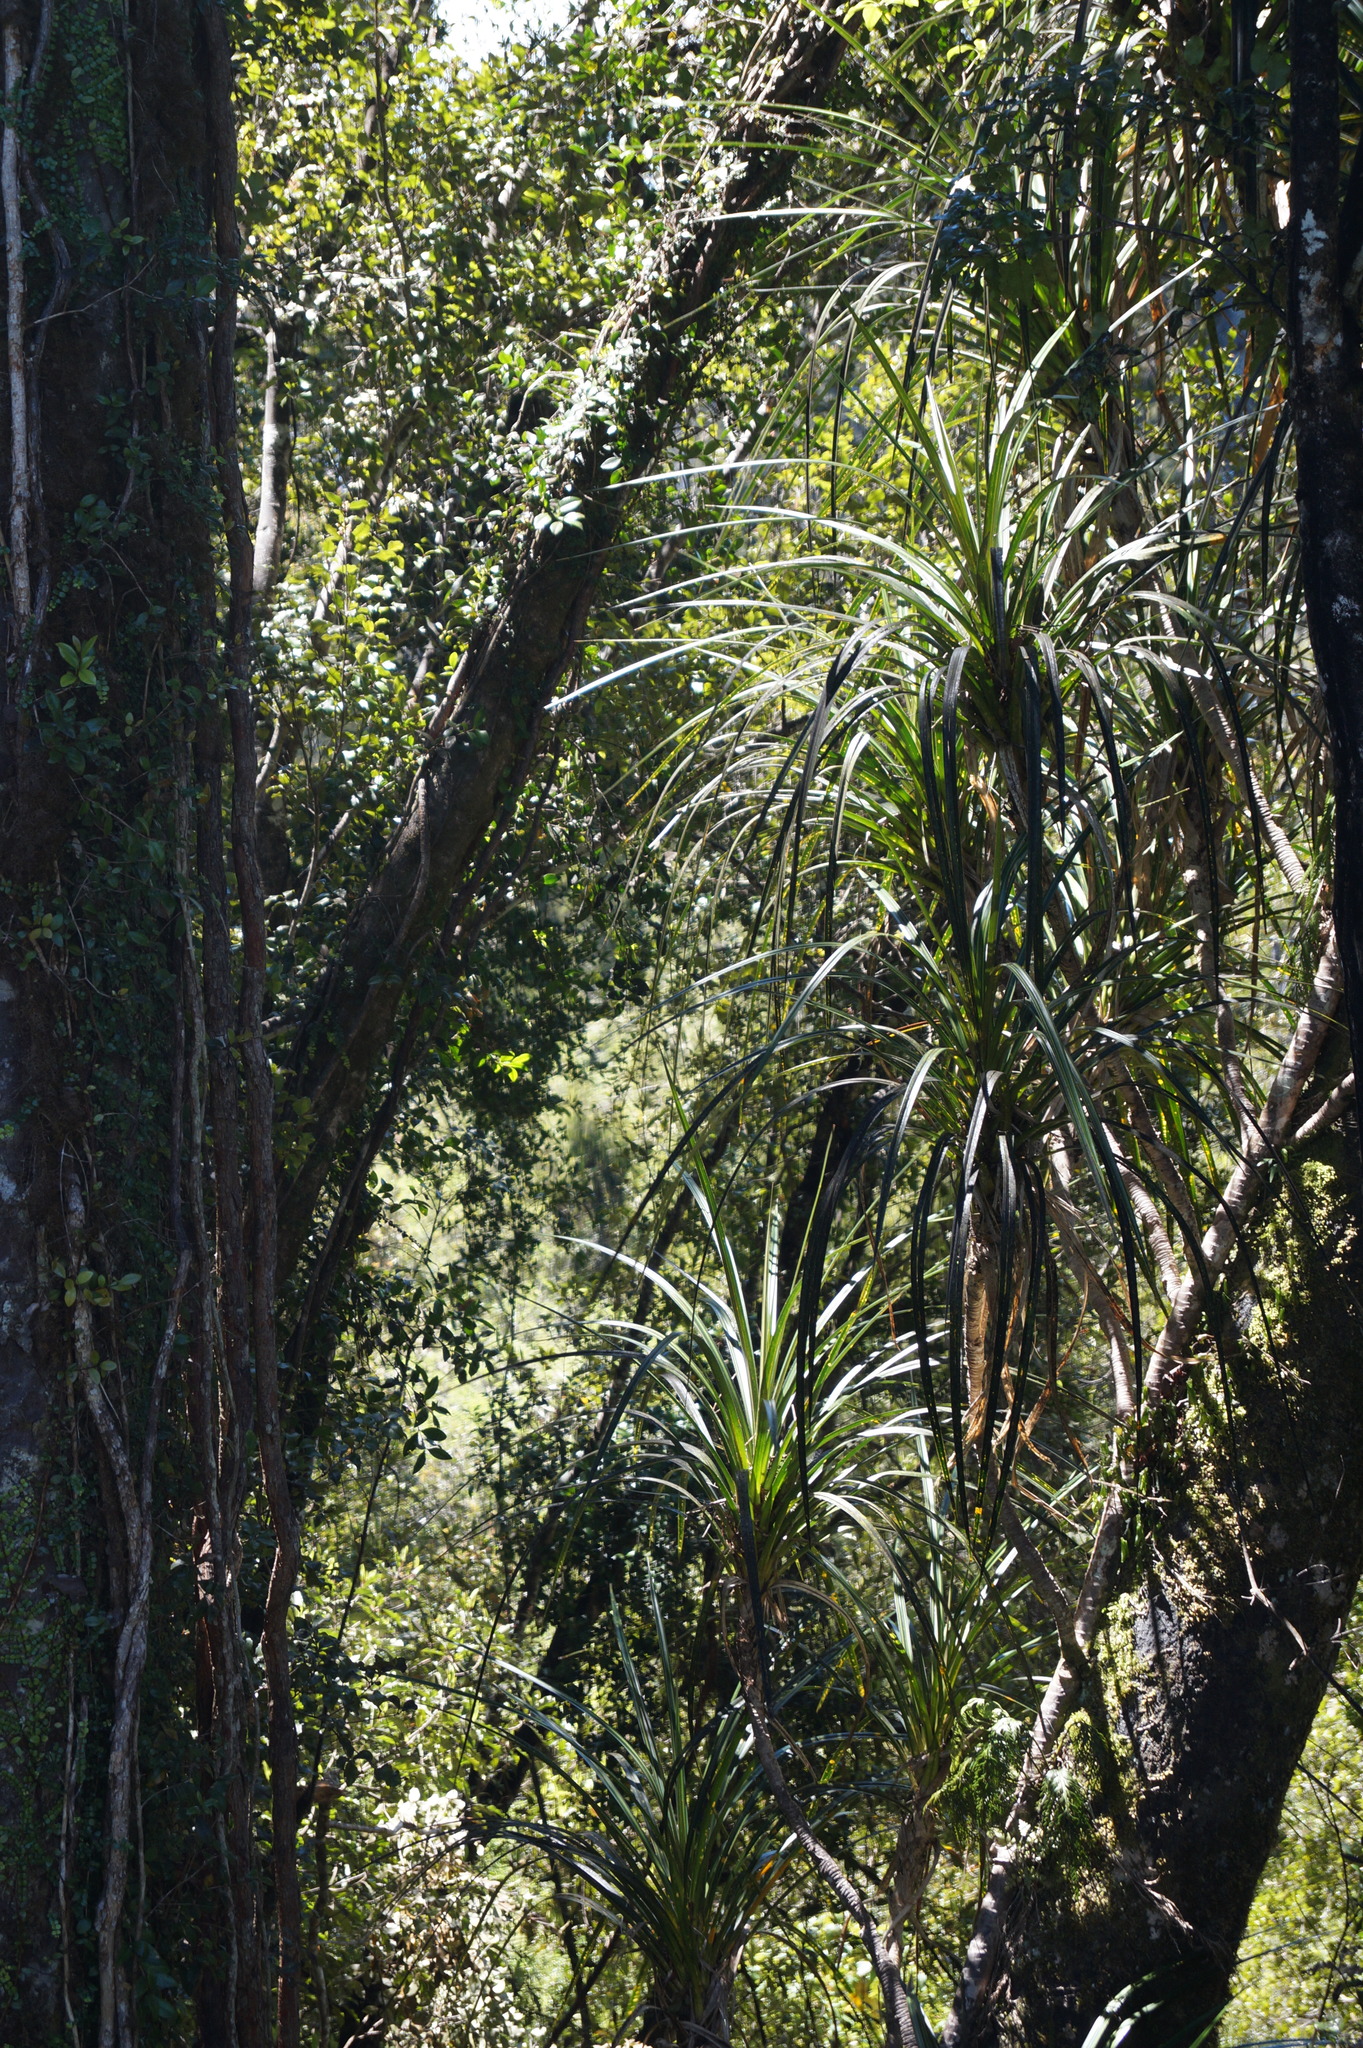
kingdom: Plantae
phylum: Tracheophyta
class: Liliopsida
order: Pandanales
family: Pandanaceae
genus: Freycinetia
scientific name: Freycinetia banksii
